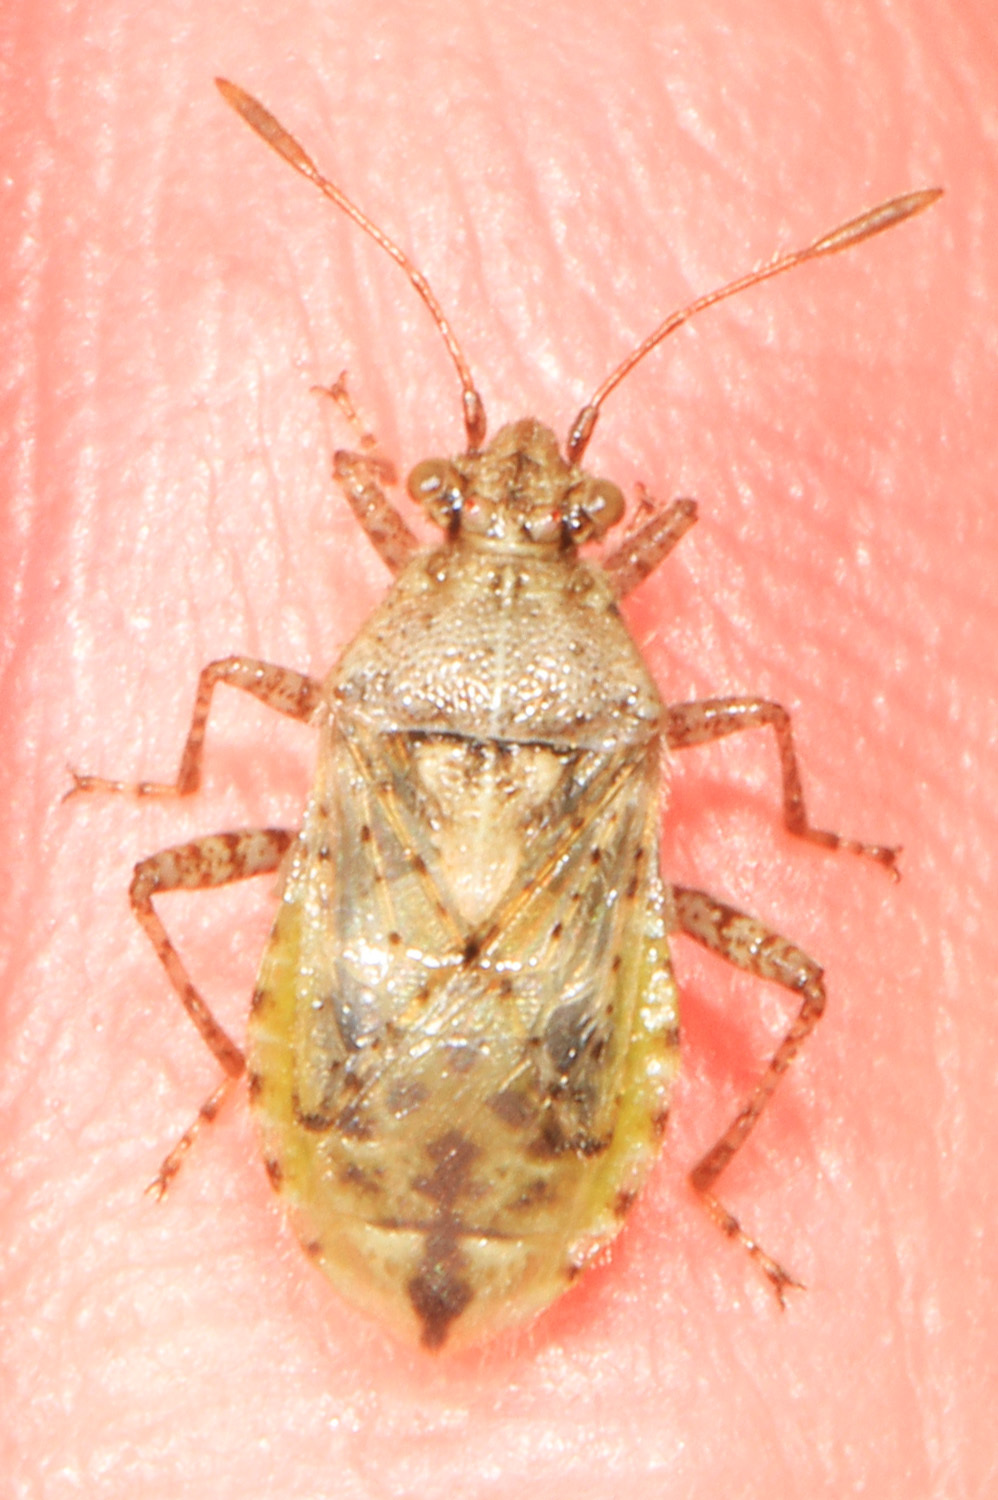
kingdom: Animalia
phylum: Arthropoda
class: Insecta
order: Hemiptera
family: Rhopalidae
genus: Niesthrea
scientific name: Niesthrea louisianica
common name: Scentless plant bug
